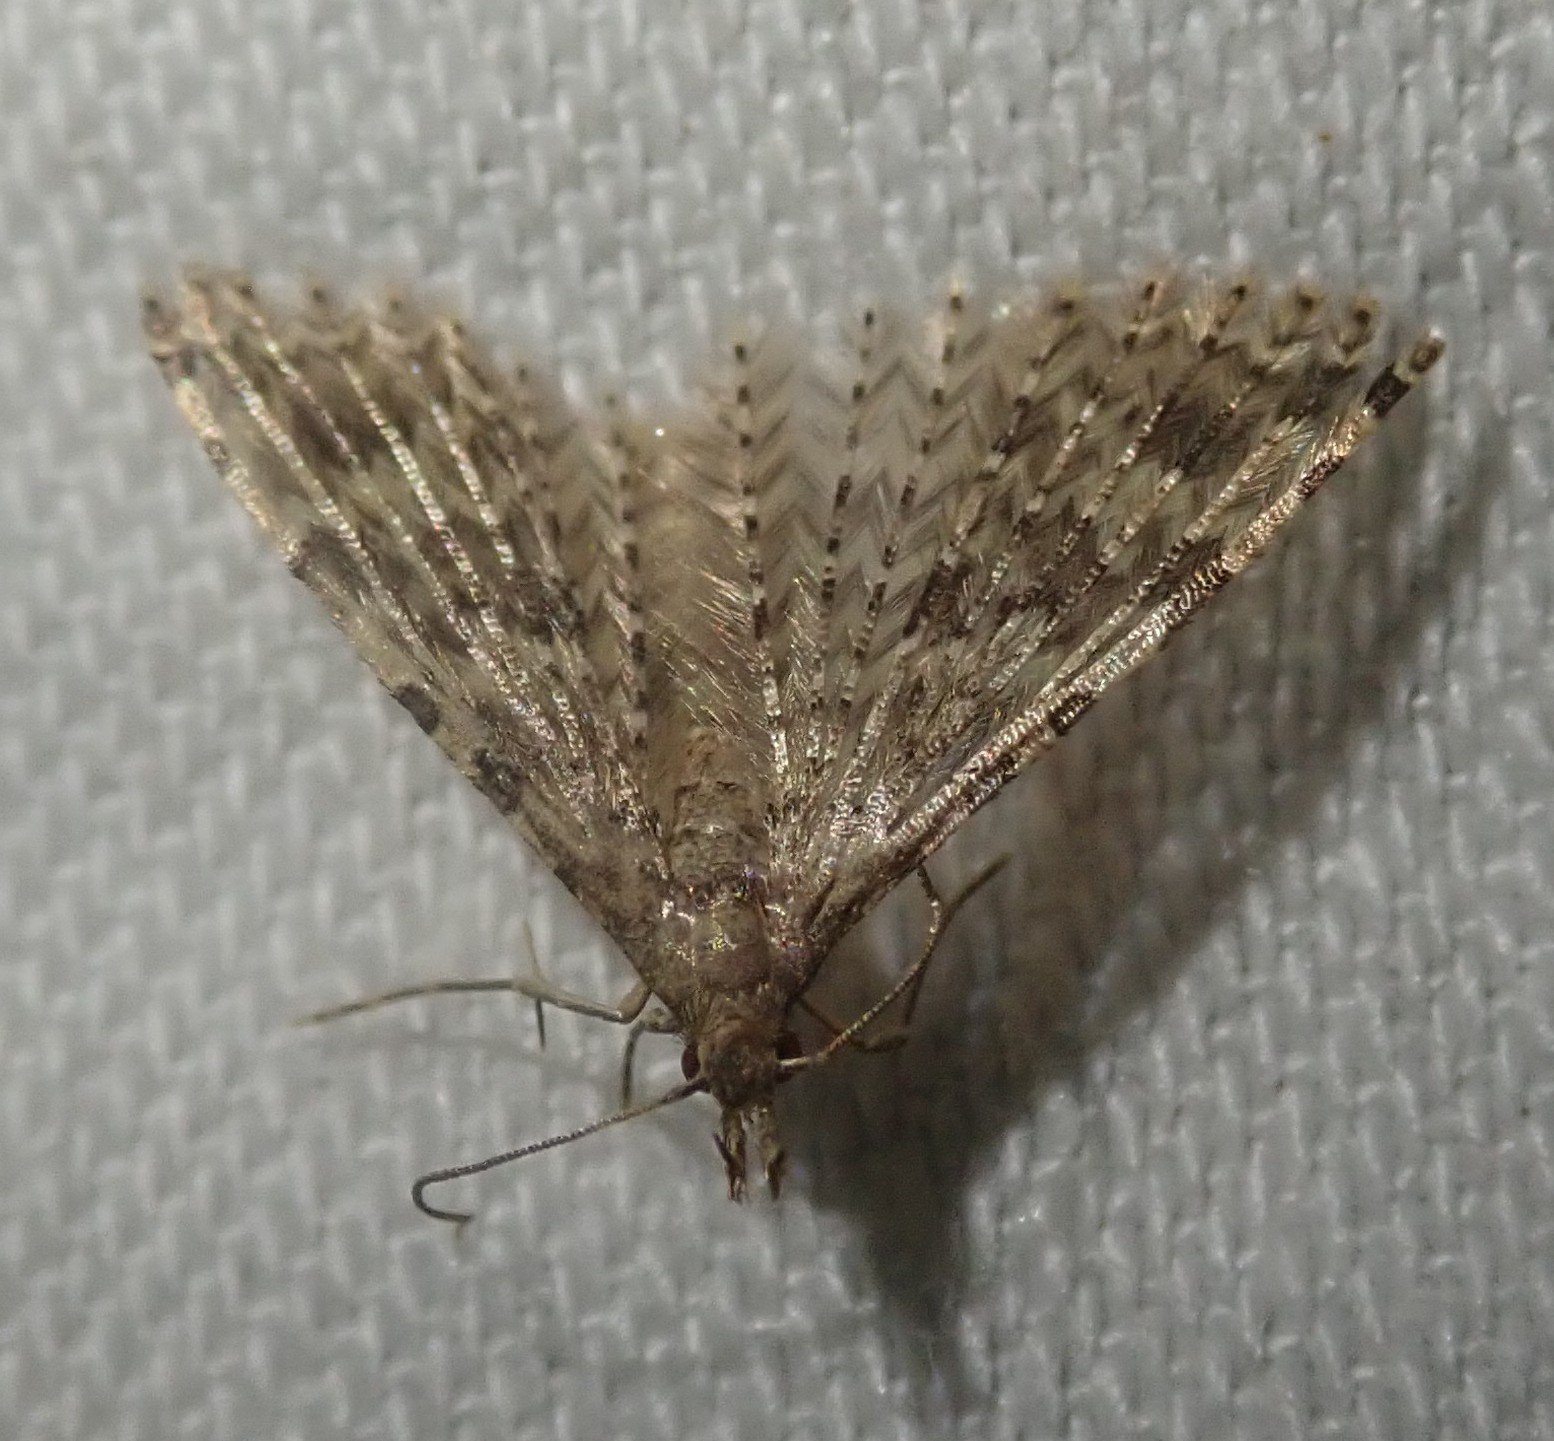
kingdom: Animalia
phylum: Arthropoda
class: Insecta
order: Lepidoptera
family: Alucitidae
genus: Alucita
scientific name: Alucita hexadactyla
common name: Twenty-plume moth
